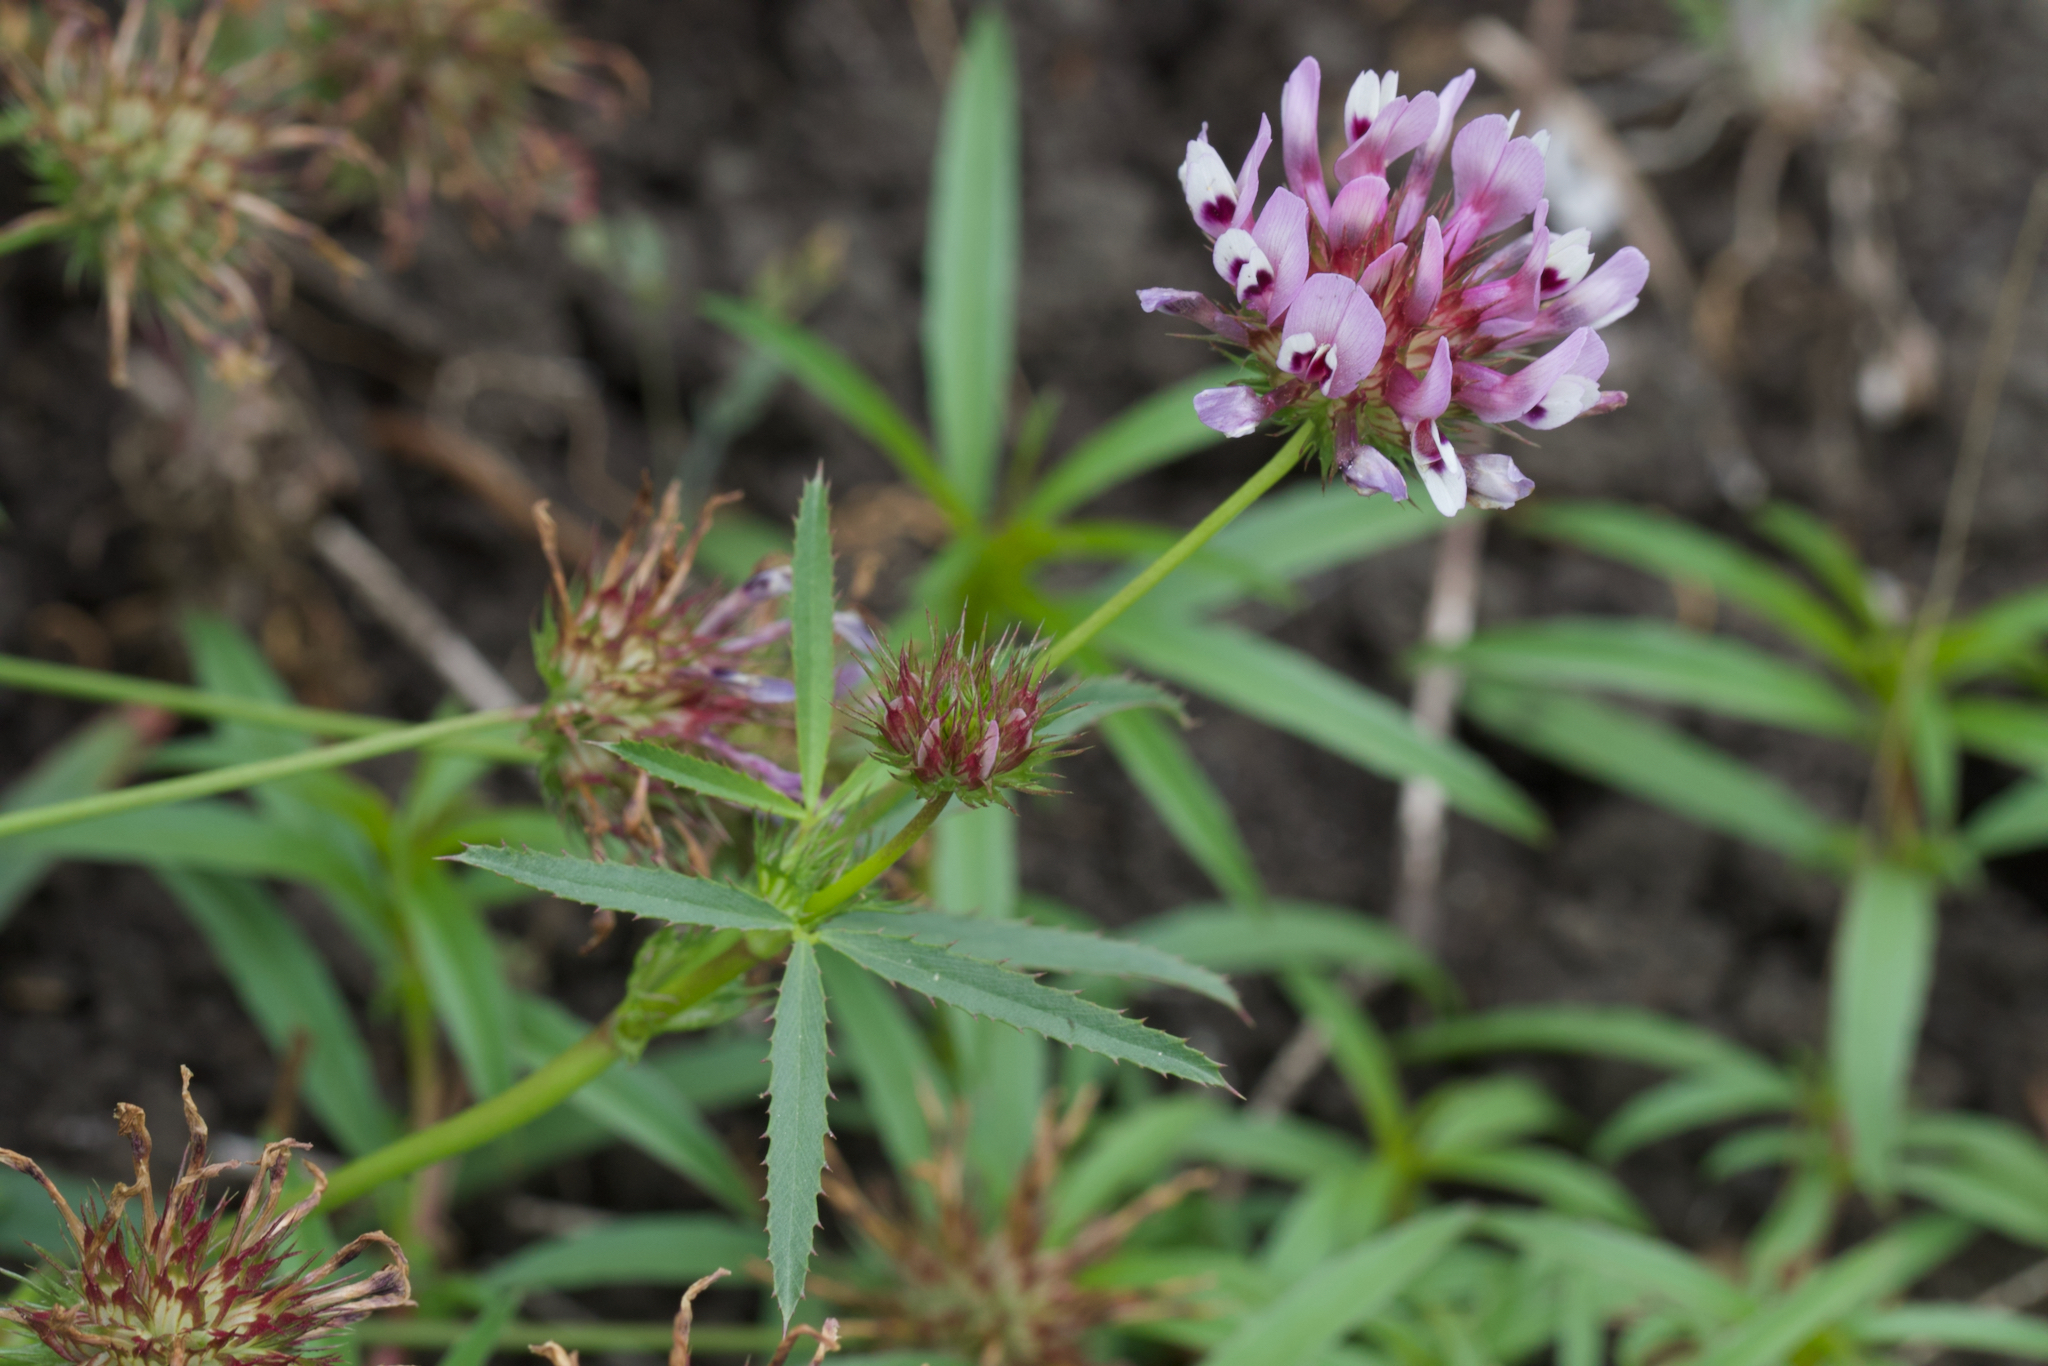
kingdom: Plantae
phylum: Tracheophyta
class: Magnoliopsida
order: Fabales
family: Fabaceae
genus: Trifolium
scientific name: Trifolium willdenovii
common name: Tomcat clover
